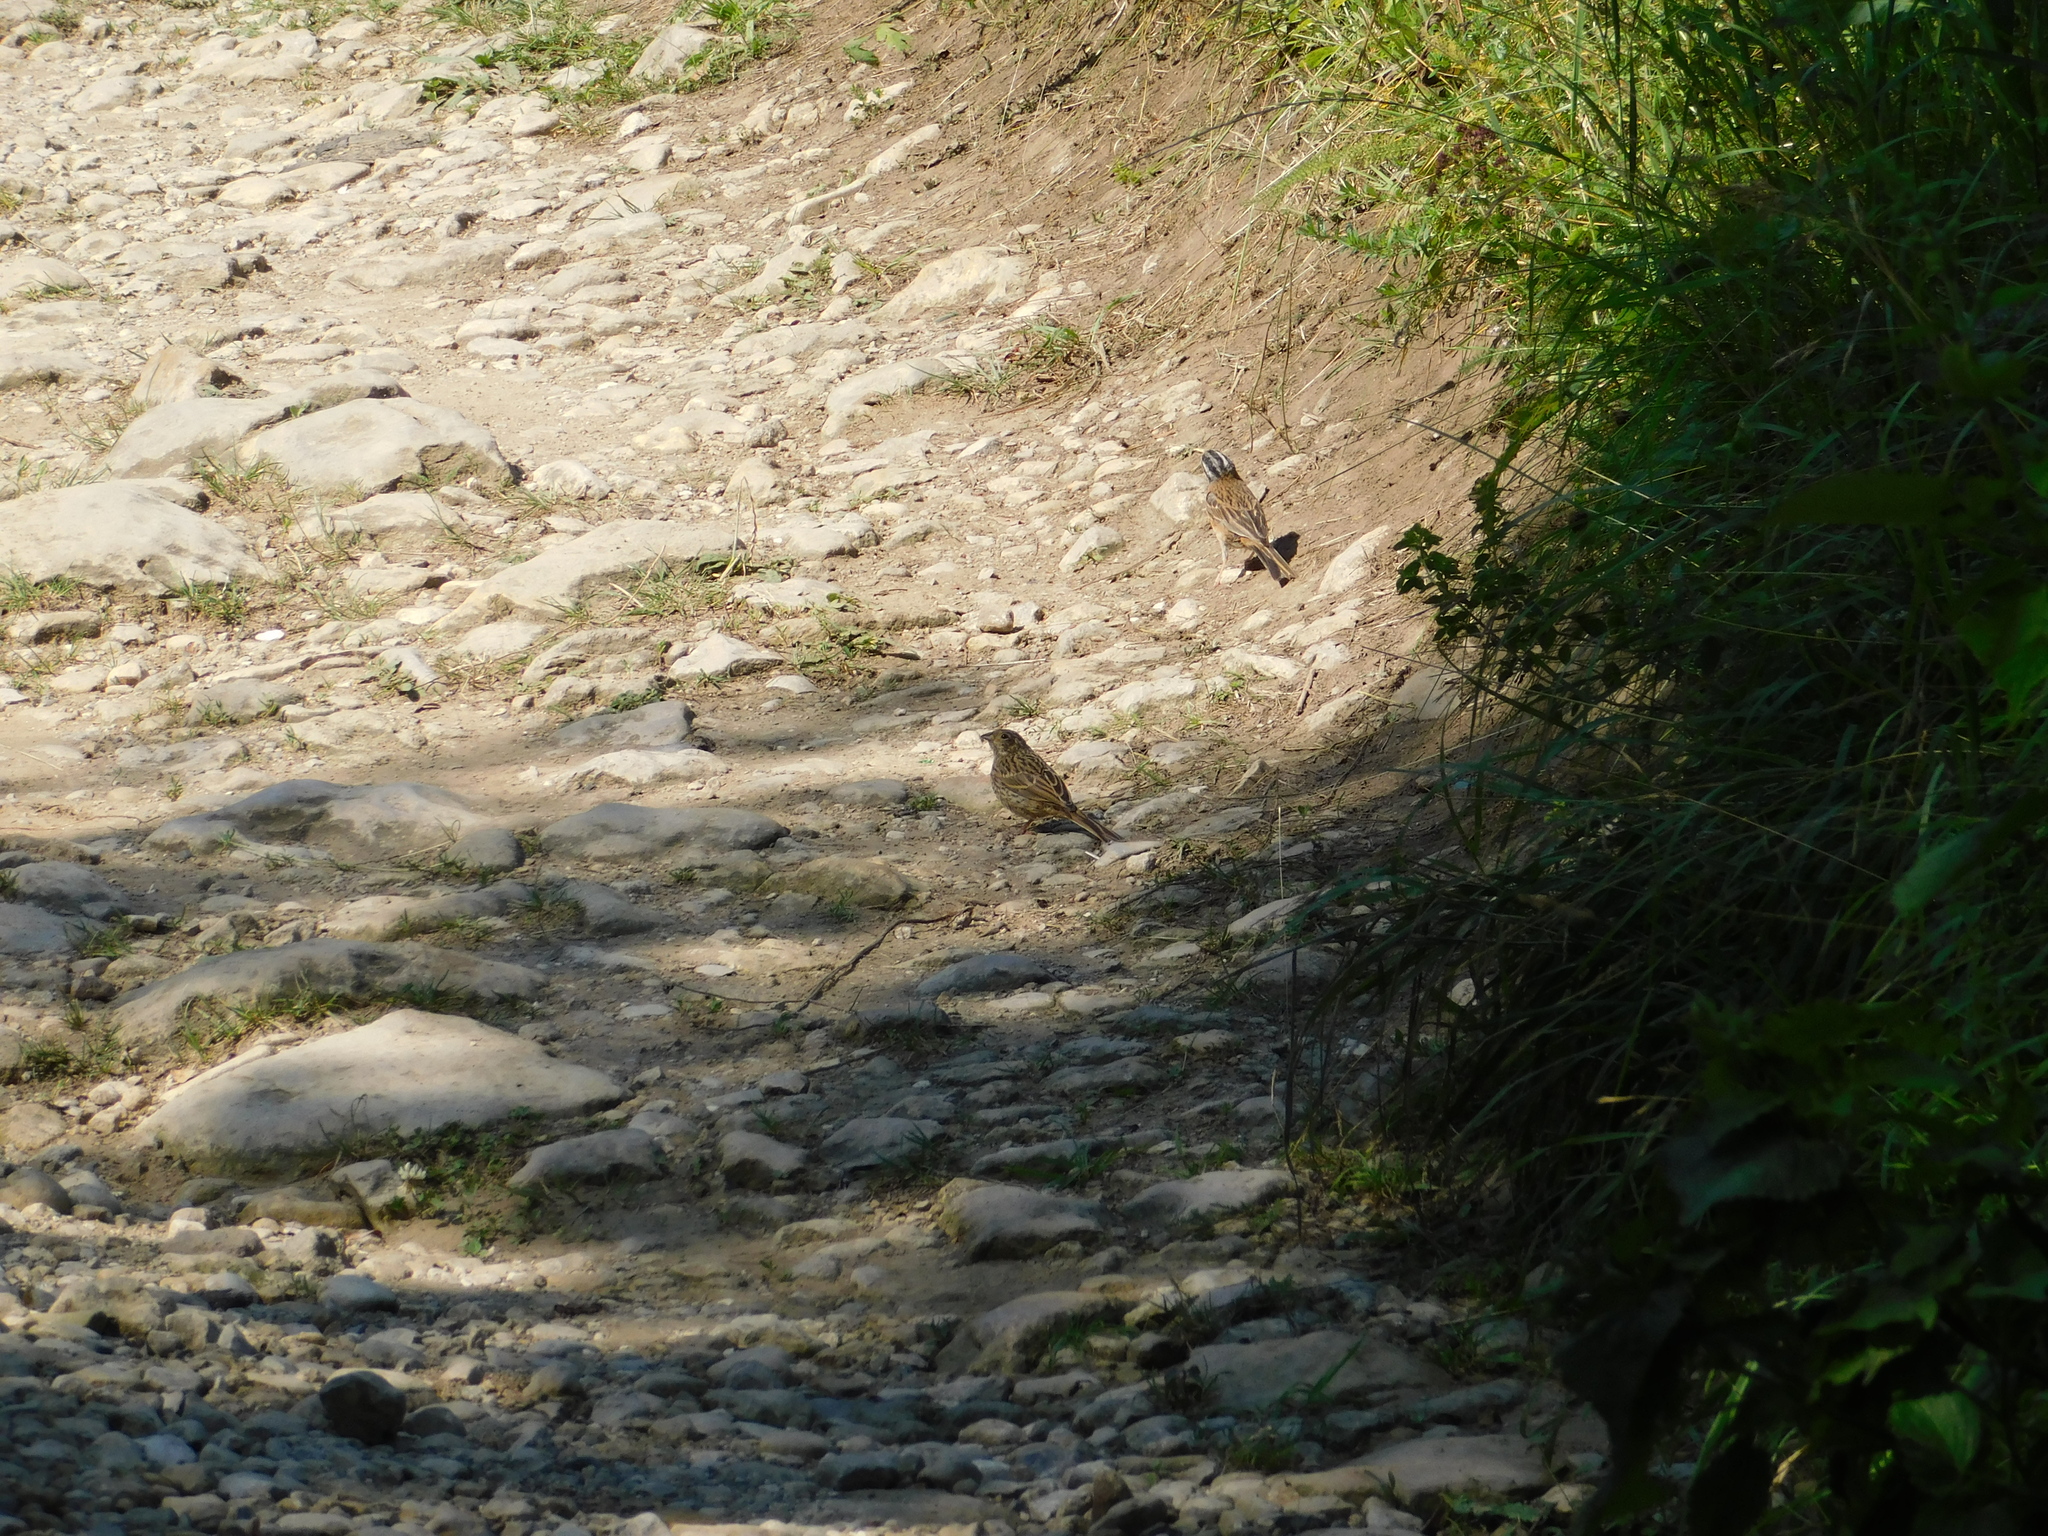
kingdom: Animalia
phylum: Chordata
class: Aves
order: Passeriformes
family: Emberizidae
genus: Emberiza
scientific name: Emberiza cia
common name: Rock bunting
